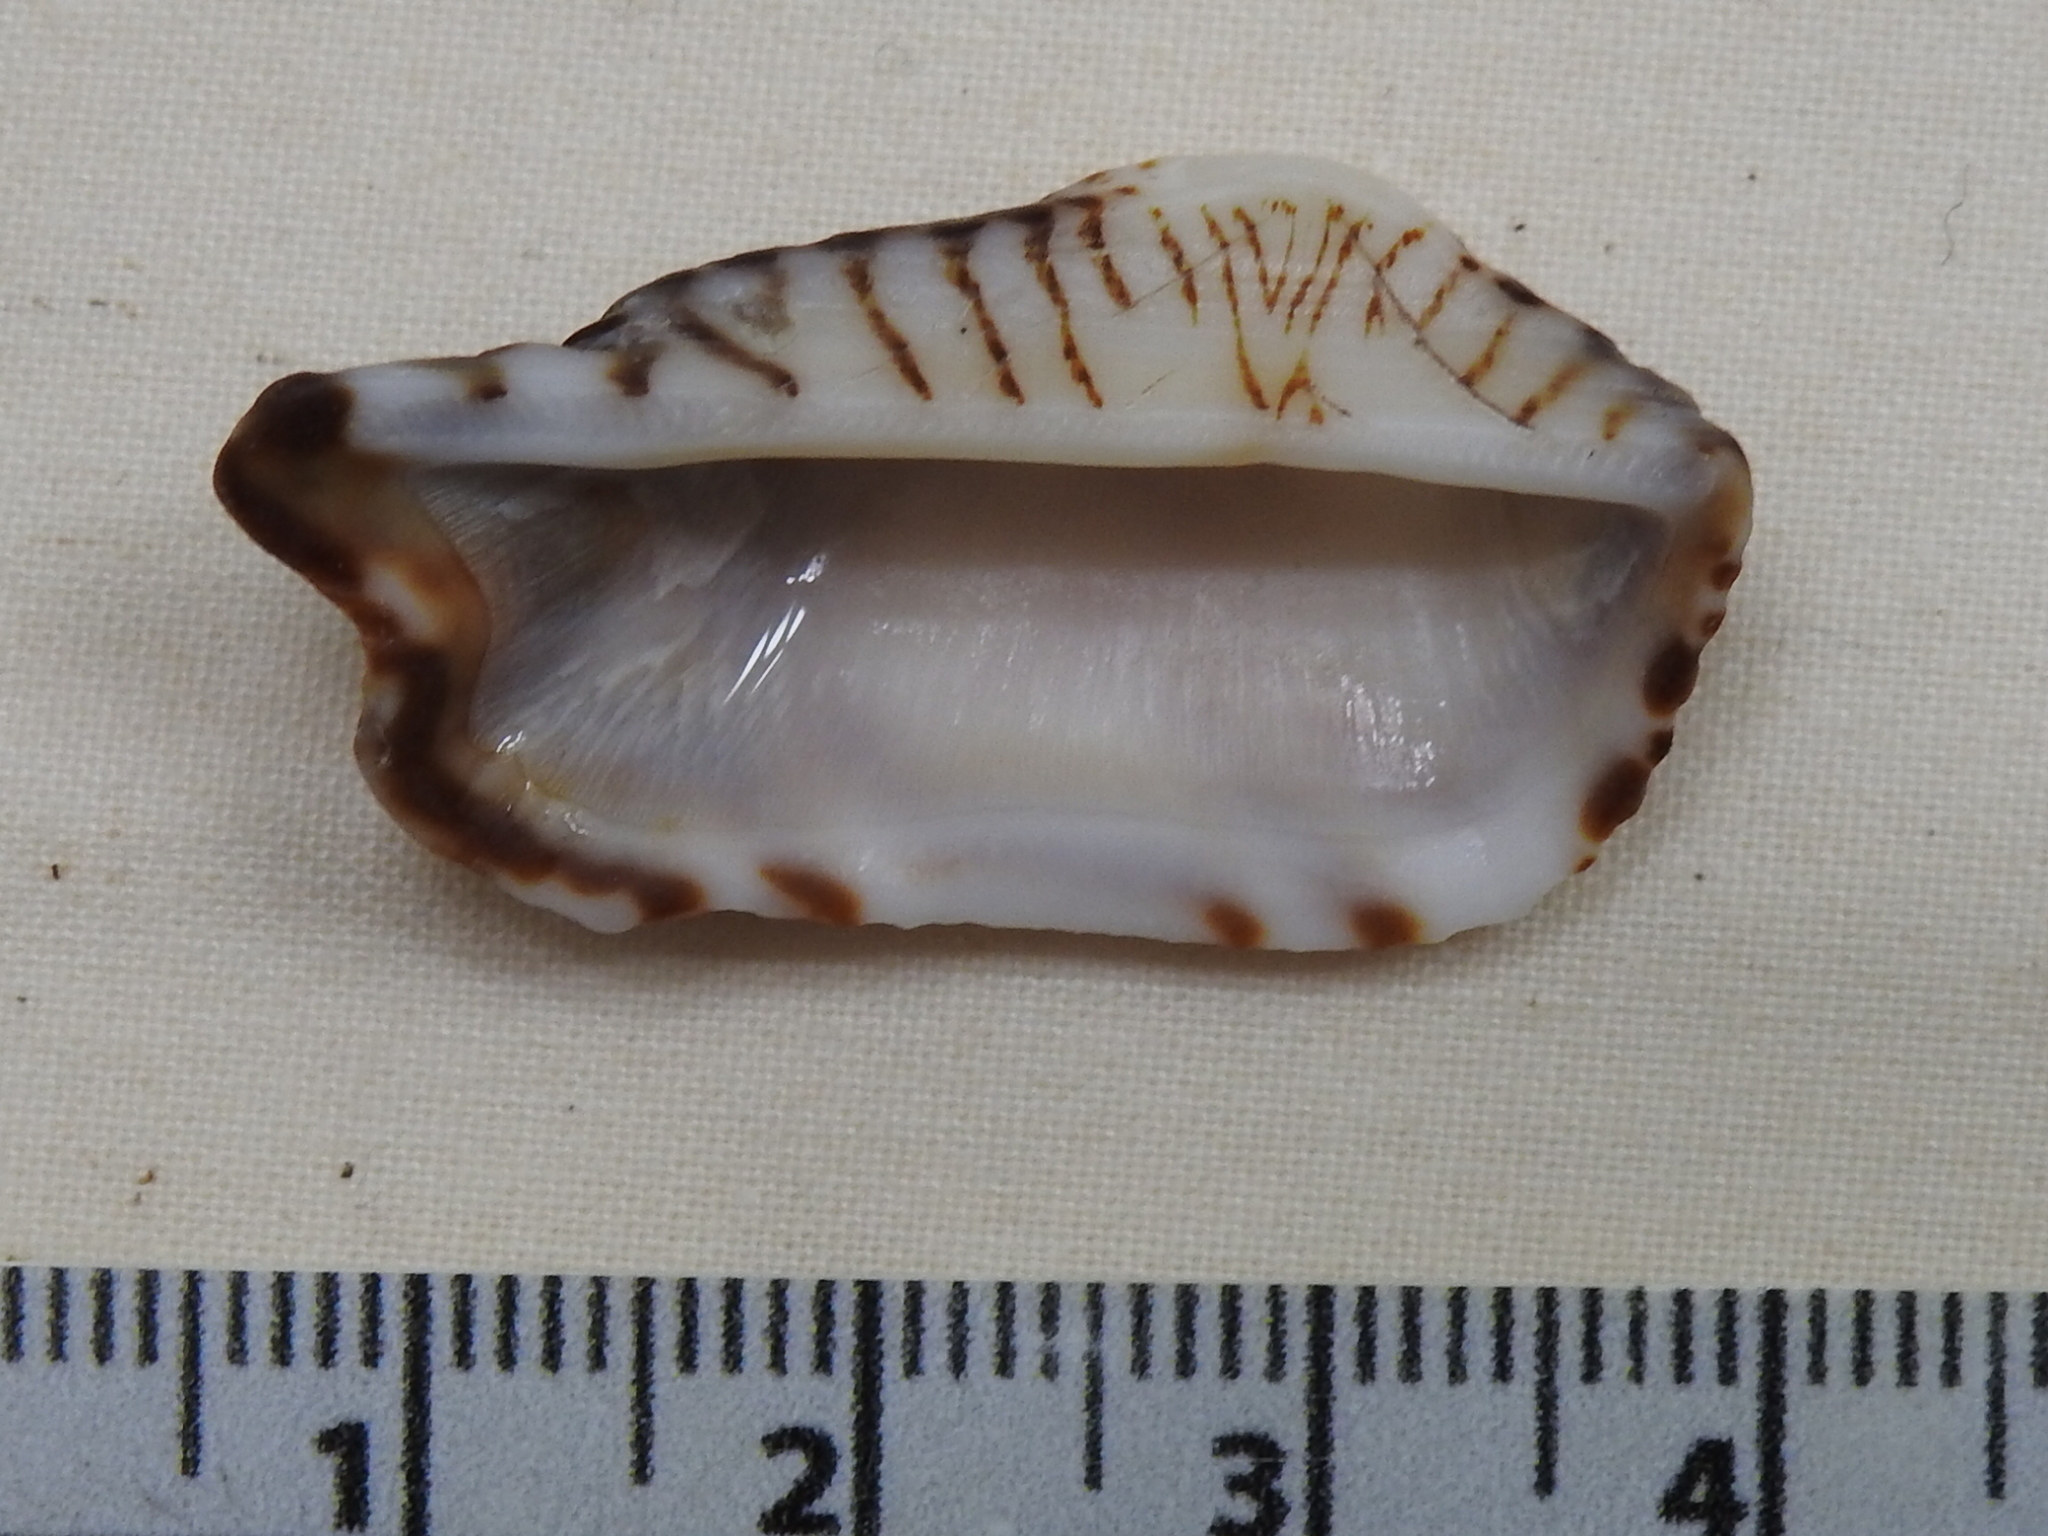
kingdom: Animalia
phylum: Mollusca
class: Bivalvia
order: Arcida
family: Arcidae
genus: Arca
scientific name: Arca zebra
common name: Atlantic turkey wing
